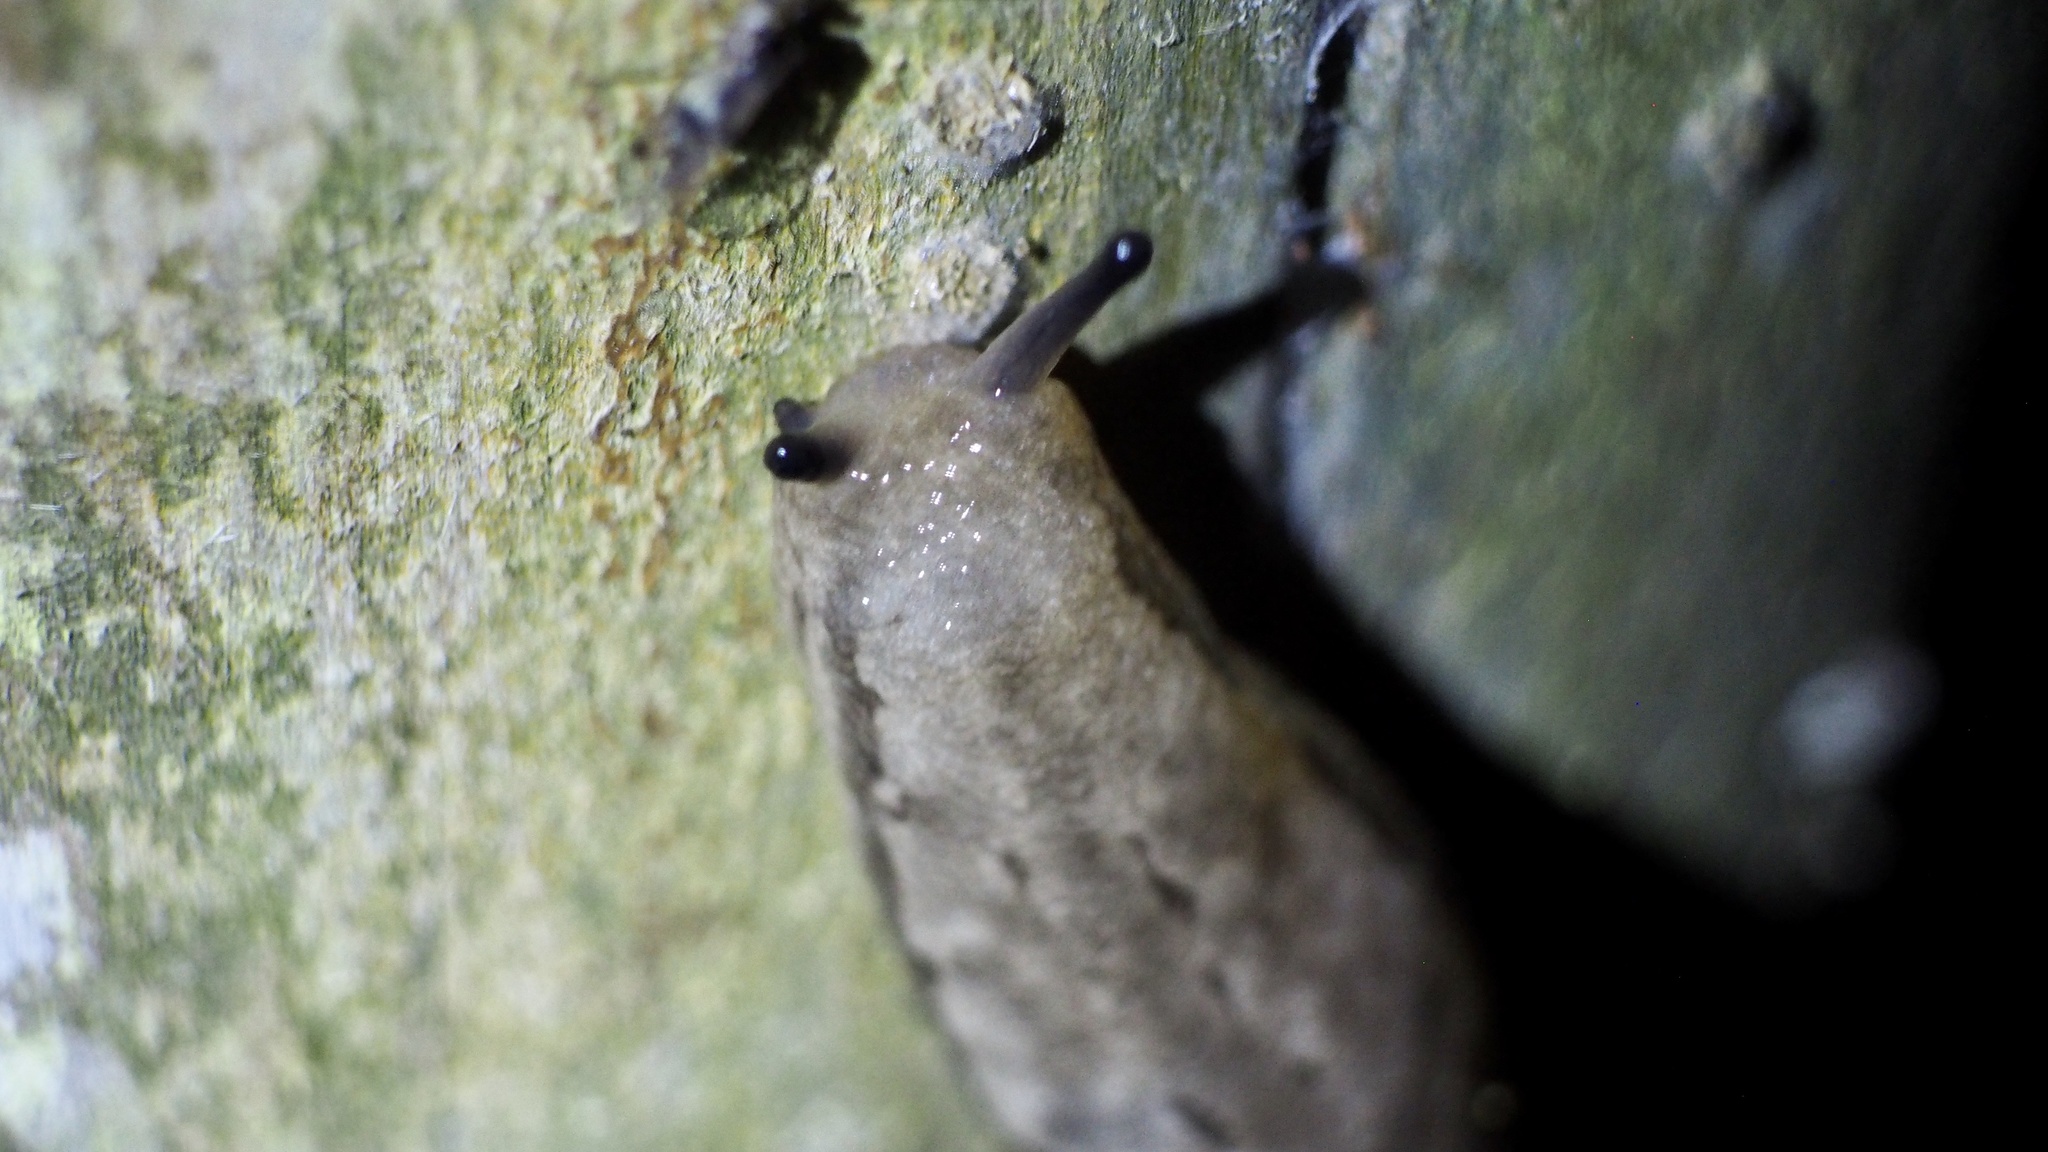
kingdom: Animalia
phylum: Mollusca
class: Gastropoda
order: Stylommatophora
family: Philomycidae
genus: Meghimatium
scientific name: Meghimatium fruhstorferi
